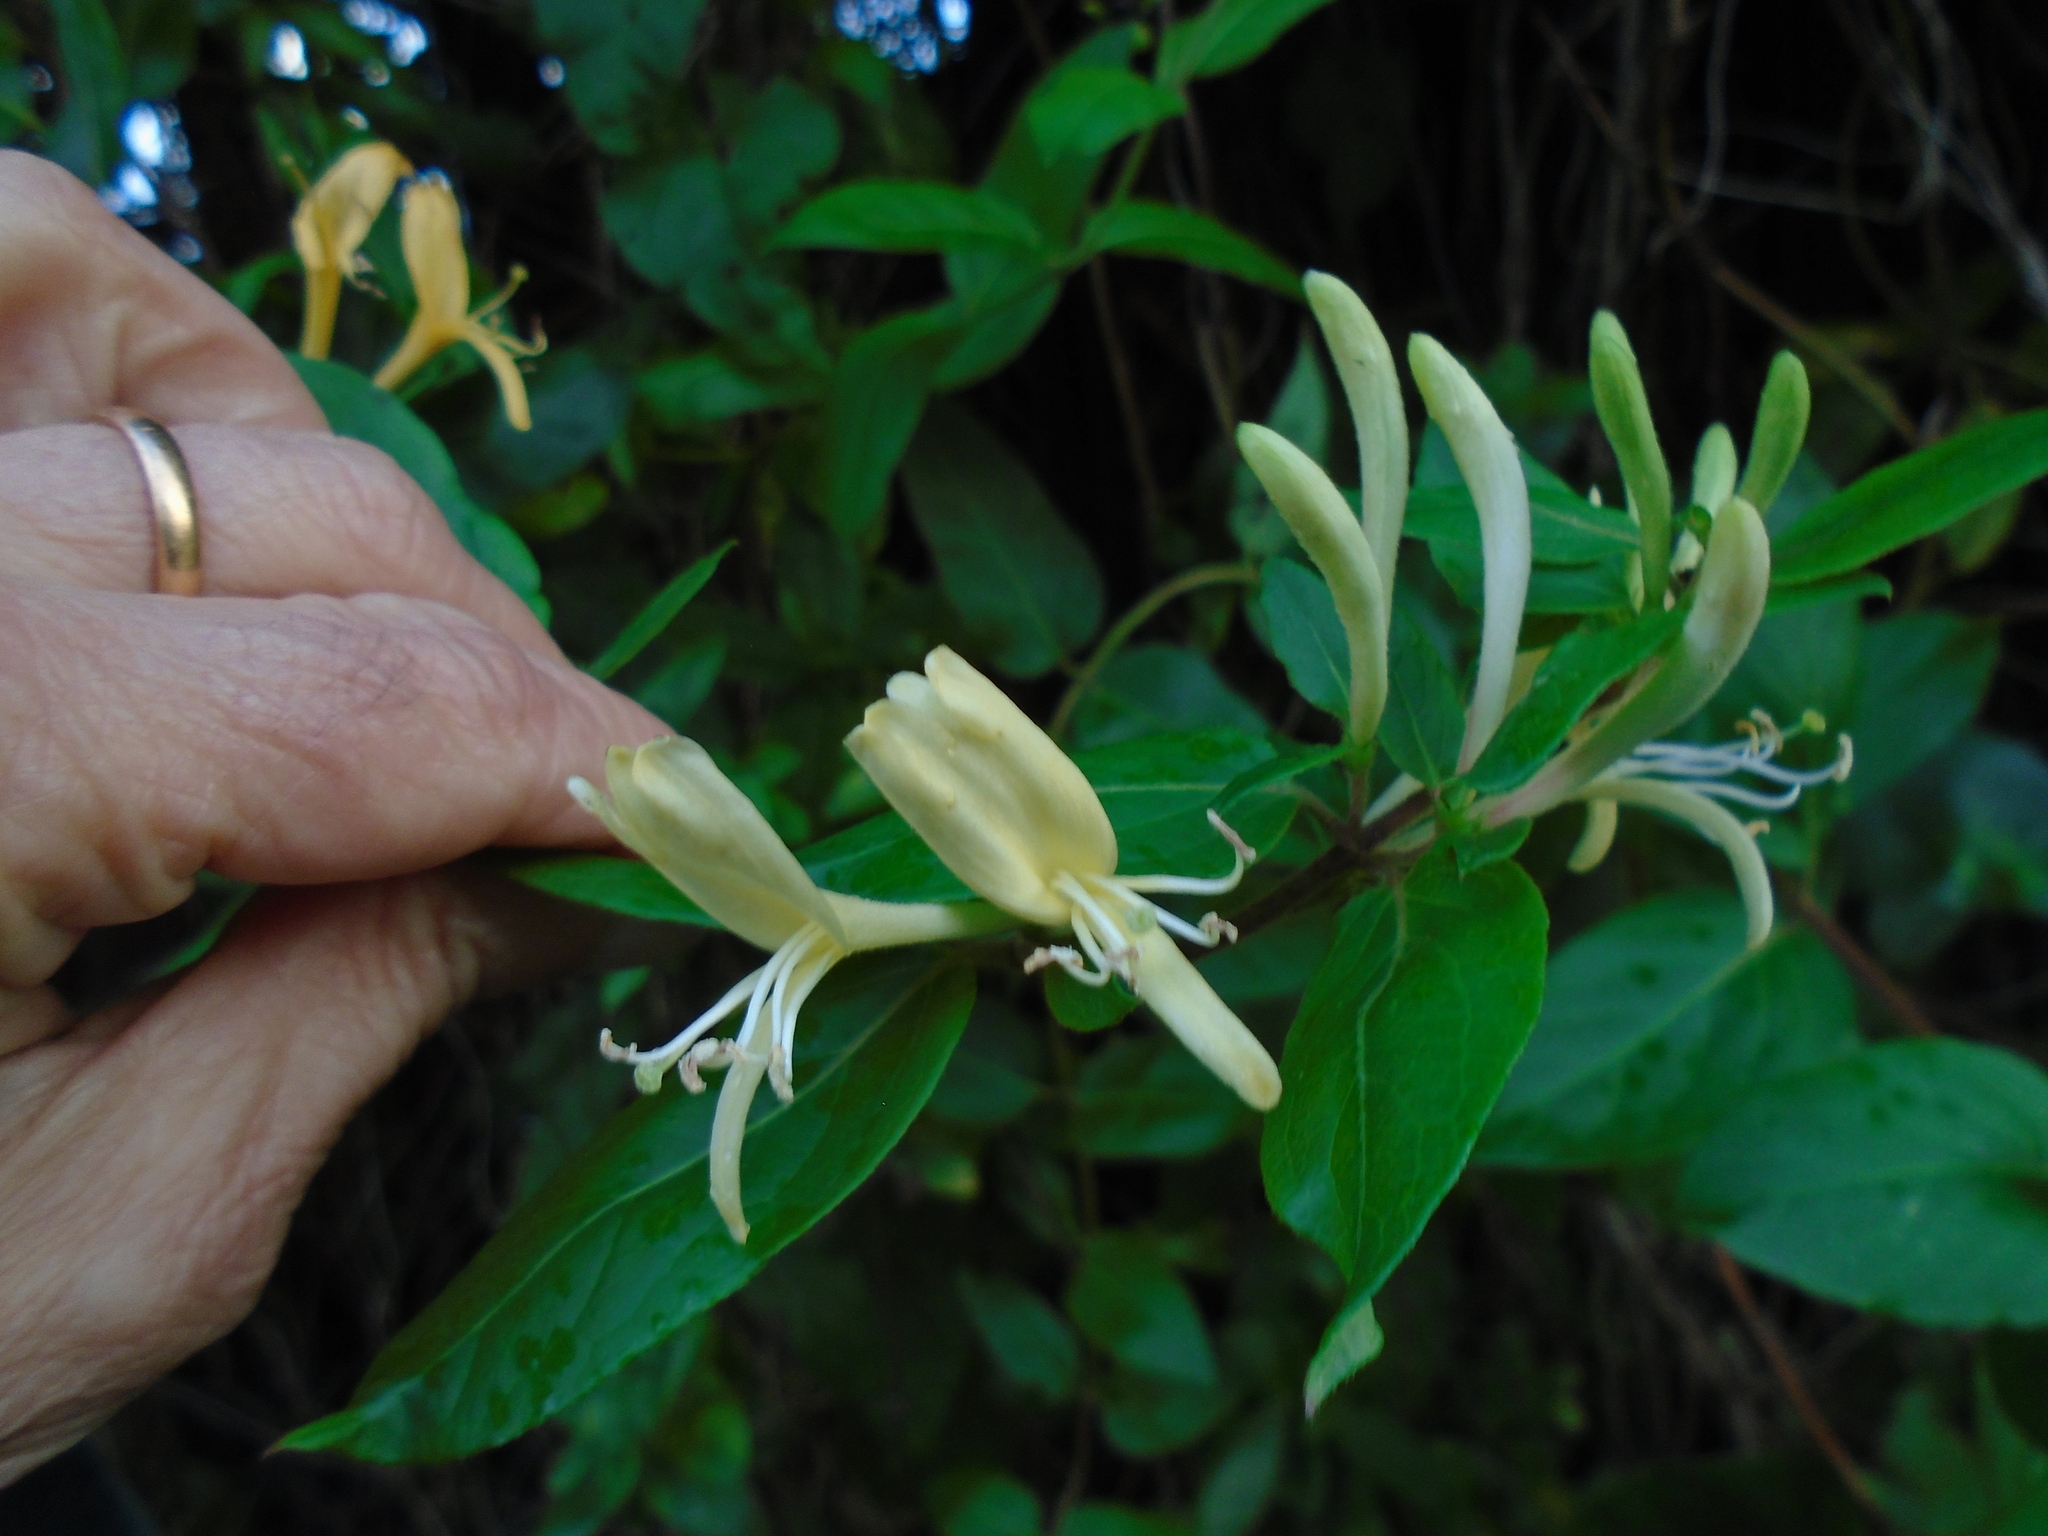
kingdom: Plantae
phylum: Tracheophyta
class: Magnoliopsida
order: Dipsacales
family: Caprifoliaceae
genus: Lonicera
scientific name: Lonicera japonica
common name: Japanese honeysuckle
